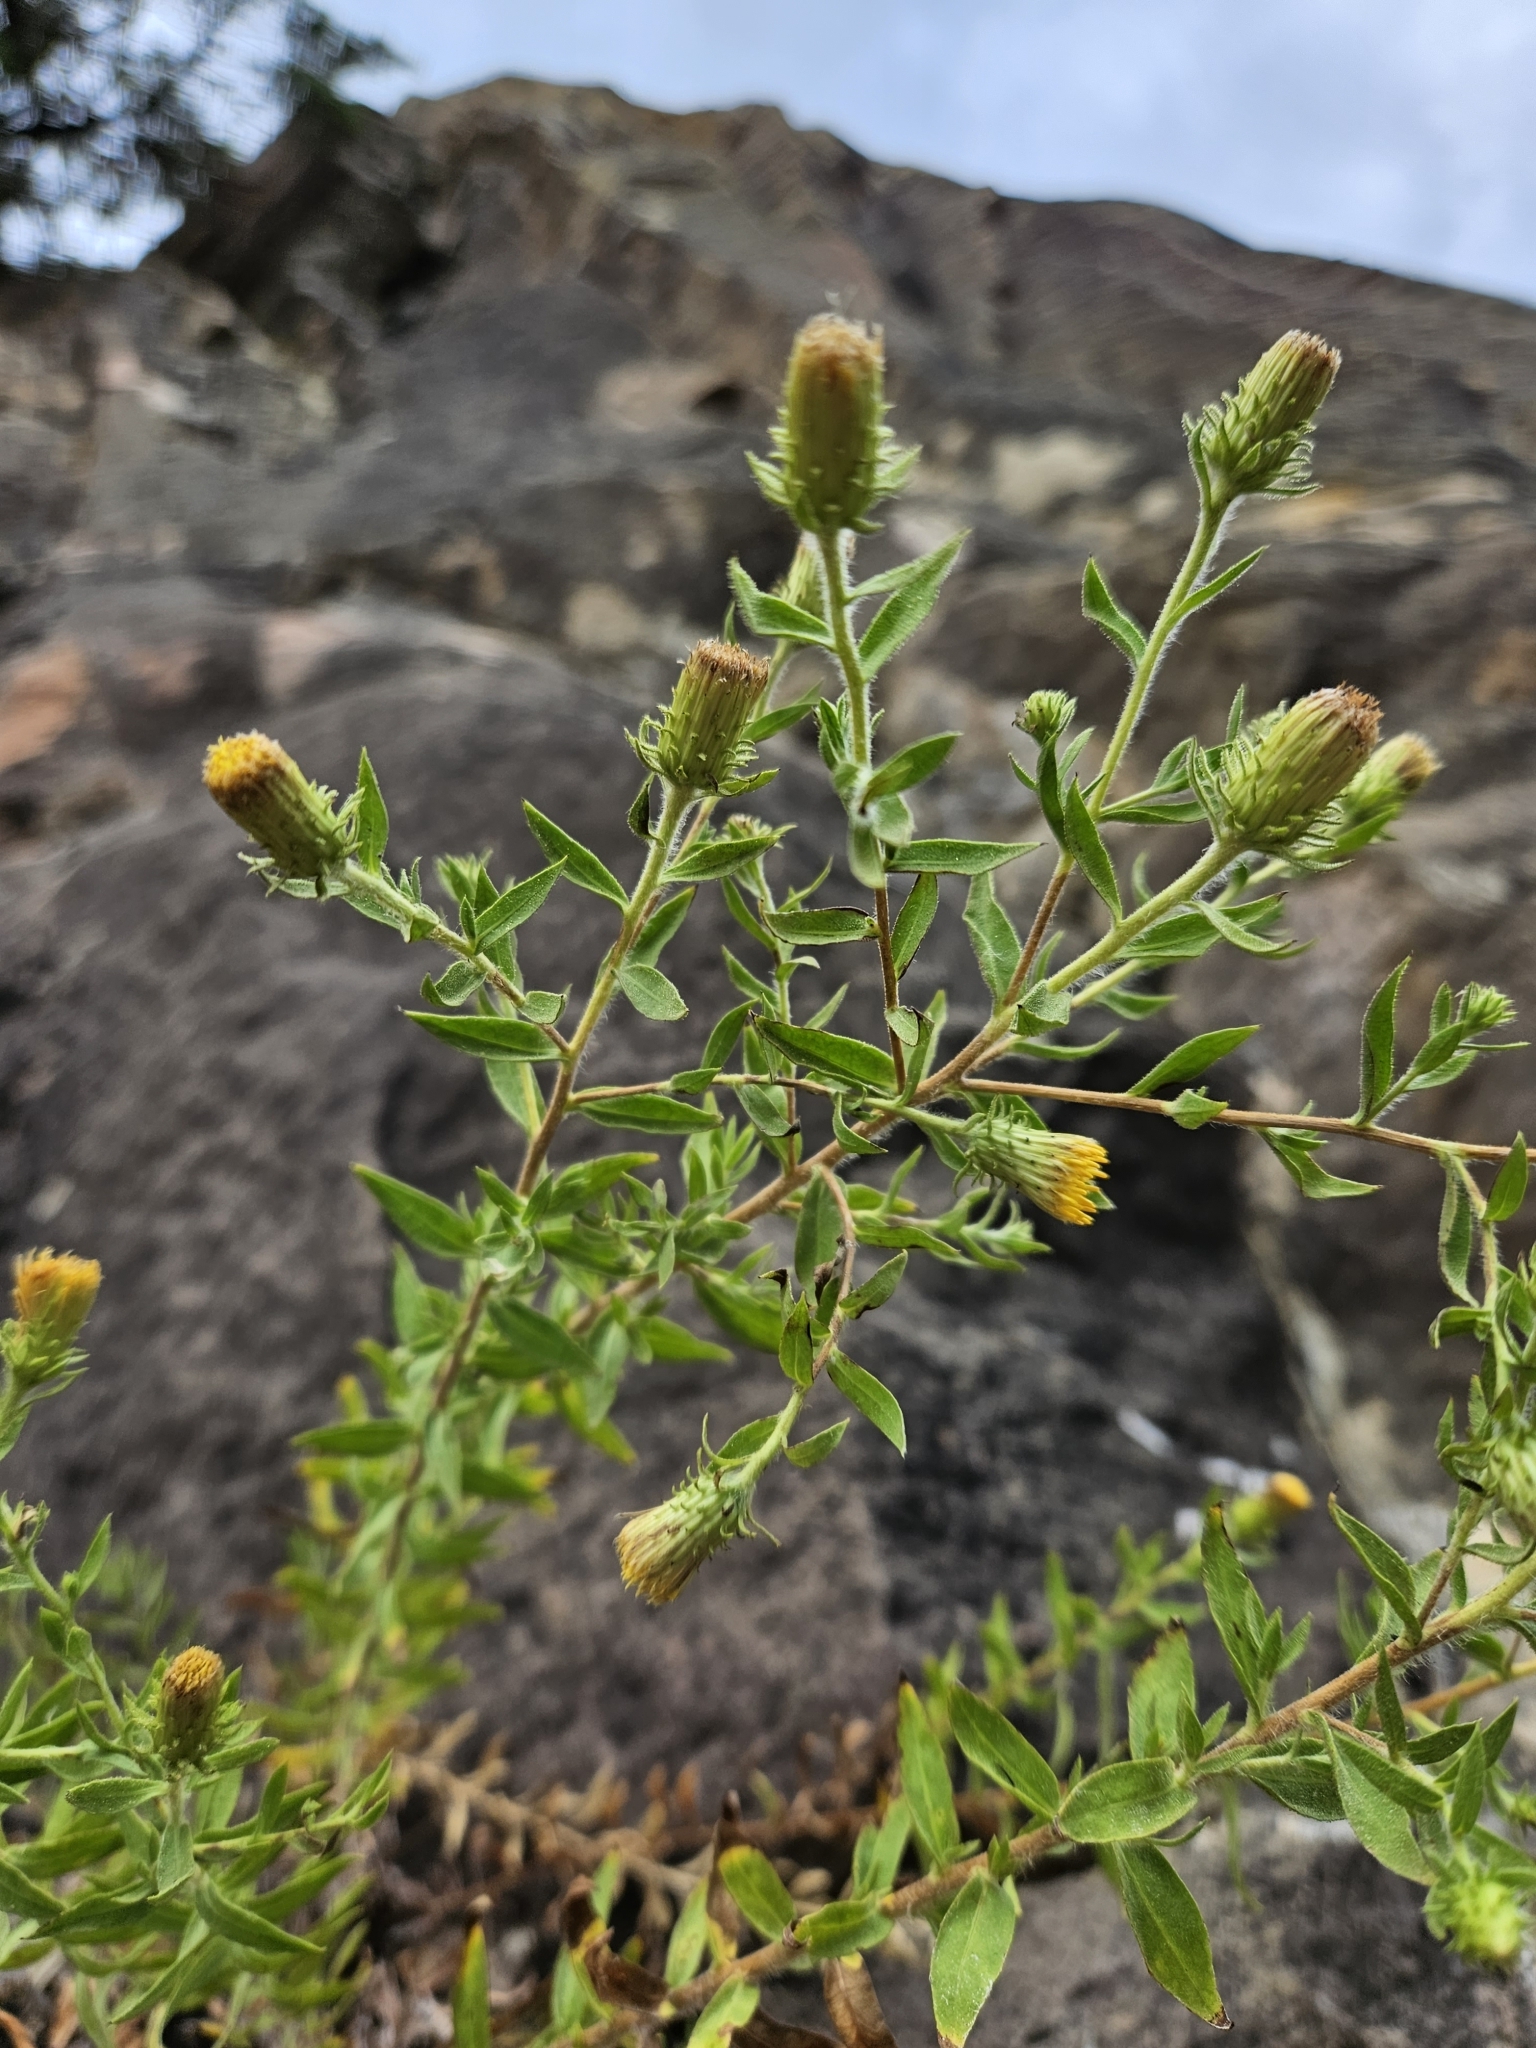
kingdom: Plantae
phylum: Tracheophyta
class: Magnoliopsida
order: Asterales
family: Asteraceae
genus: Chiliadenus
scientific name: Chiliadenus glutinosus
